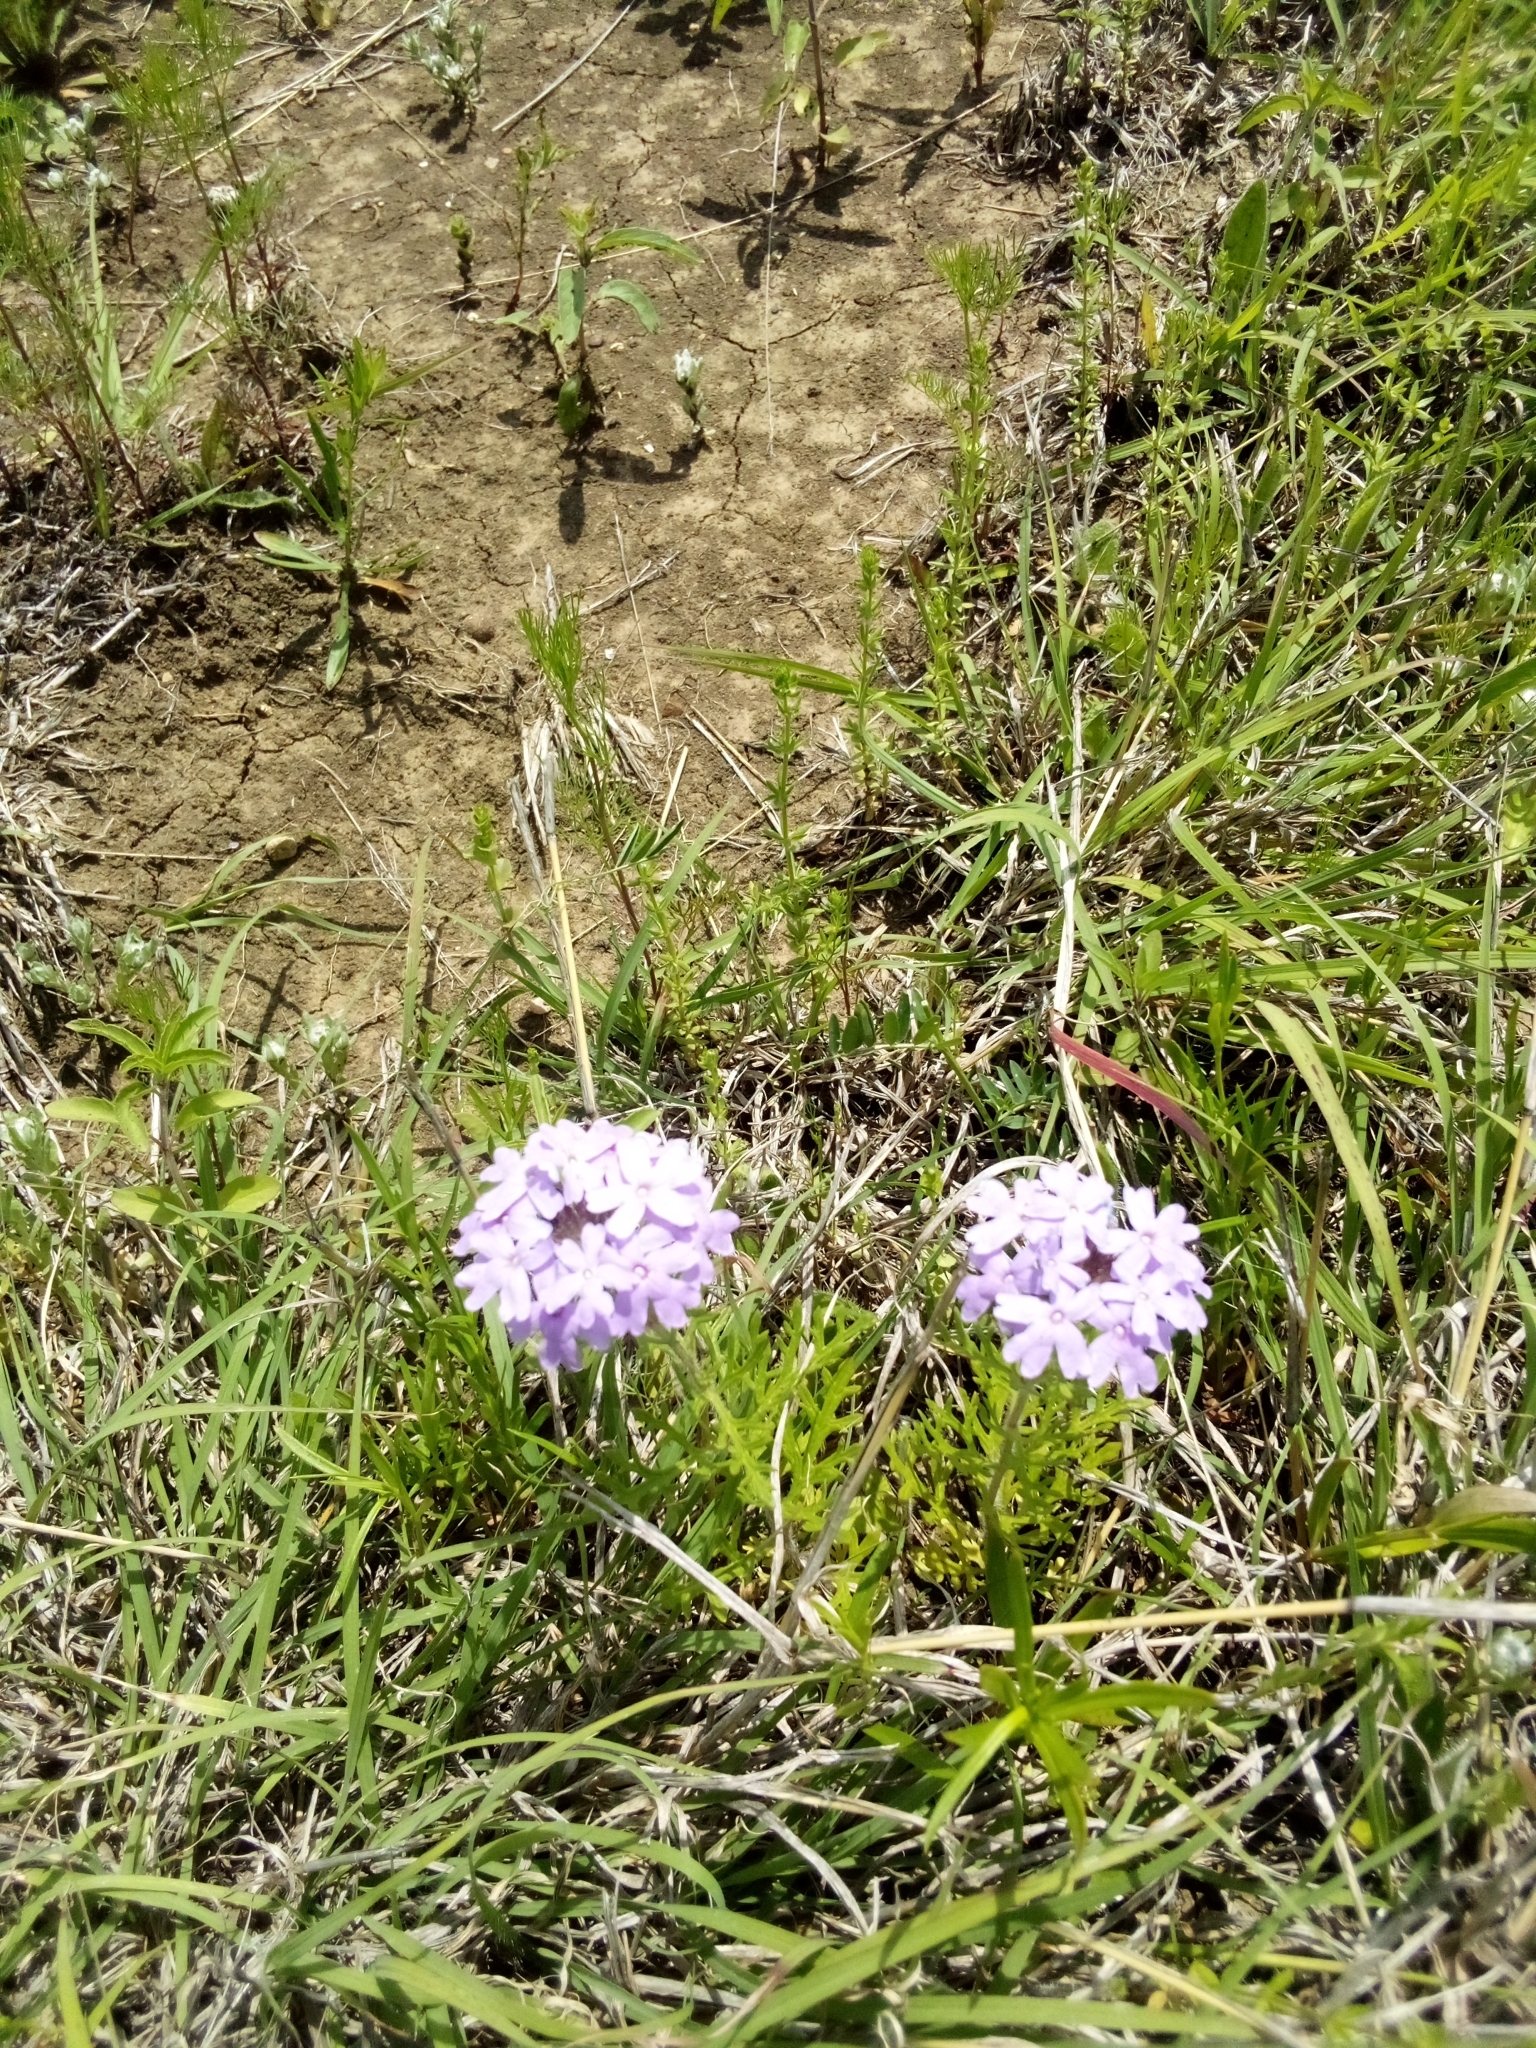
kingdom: Plantae
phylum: Tracheophyta
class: Magnoliopsida
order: Lamiales
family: Verbenaceae
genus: Verbena
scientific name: Verbena bipinnatifida
